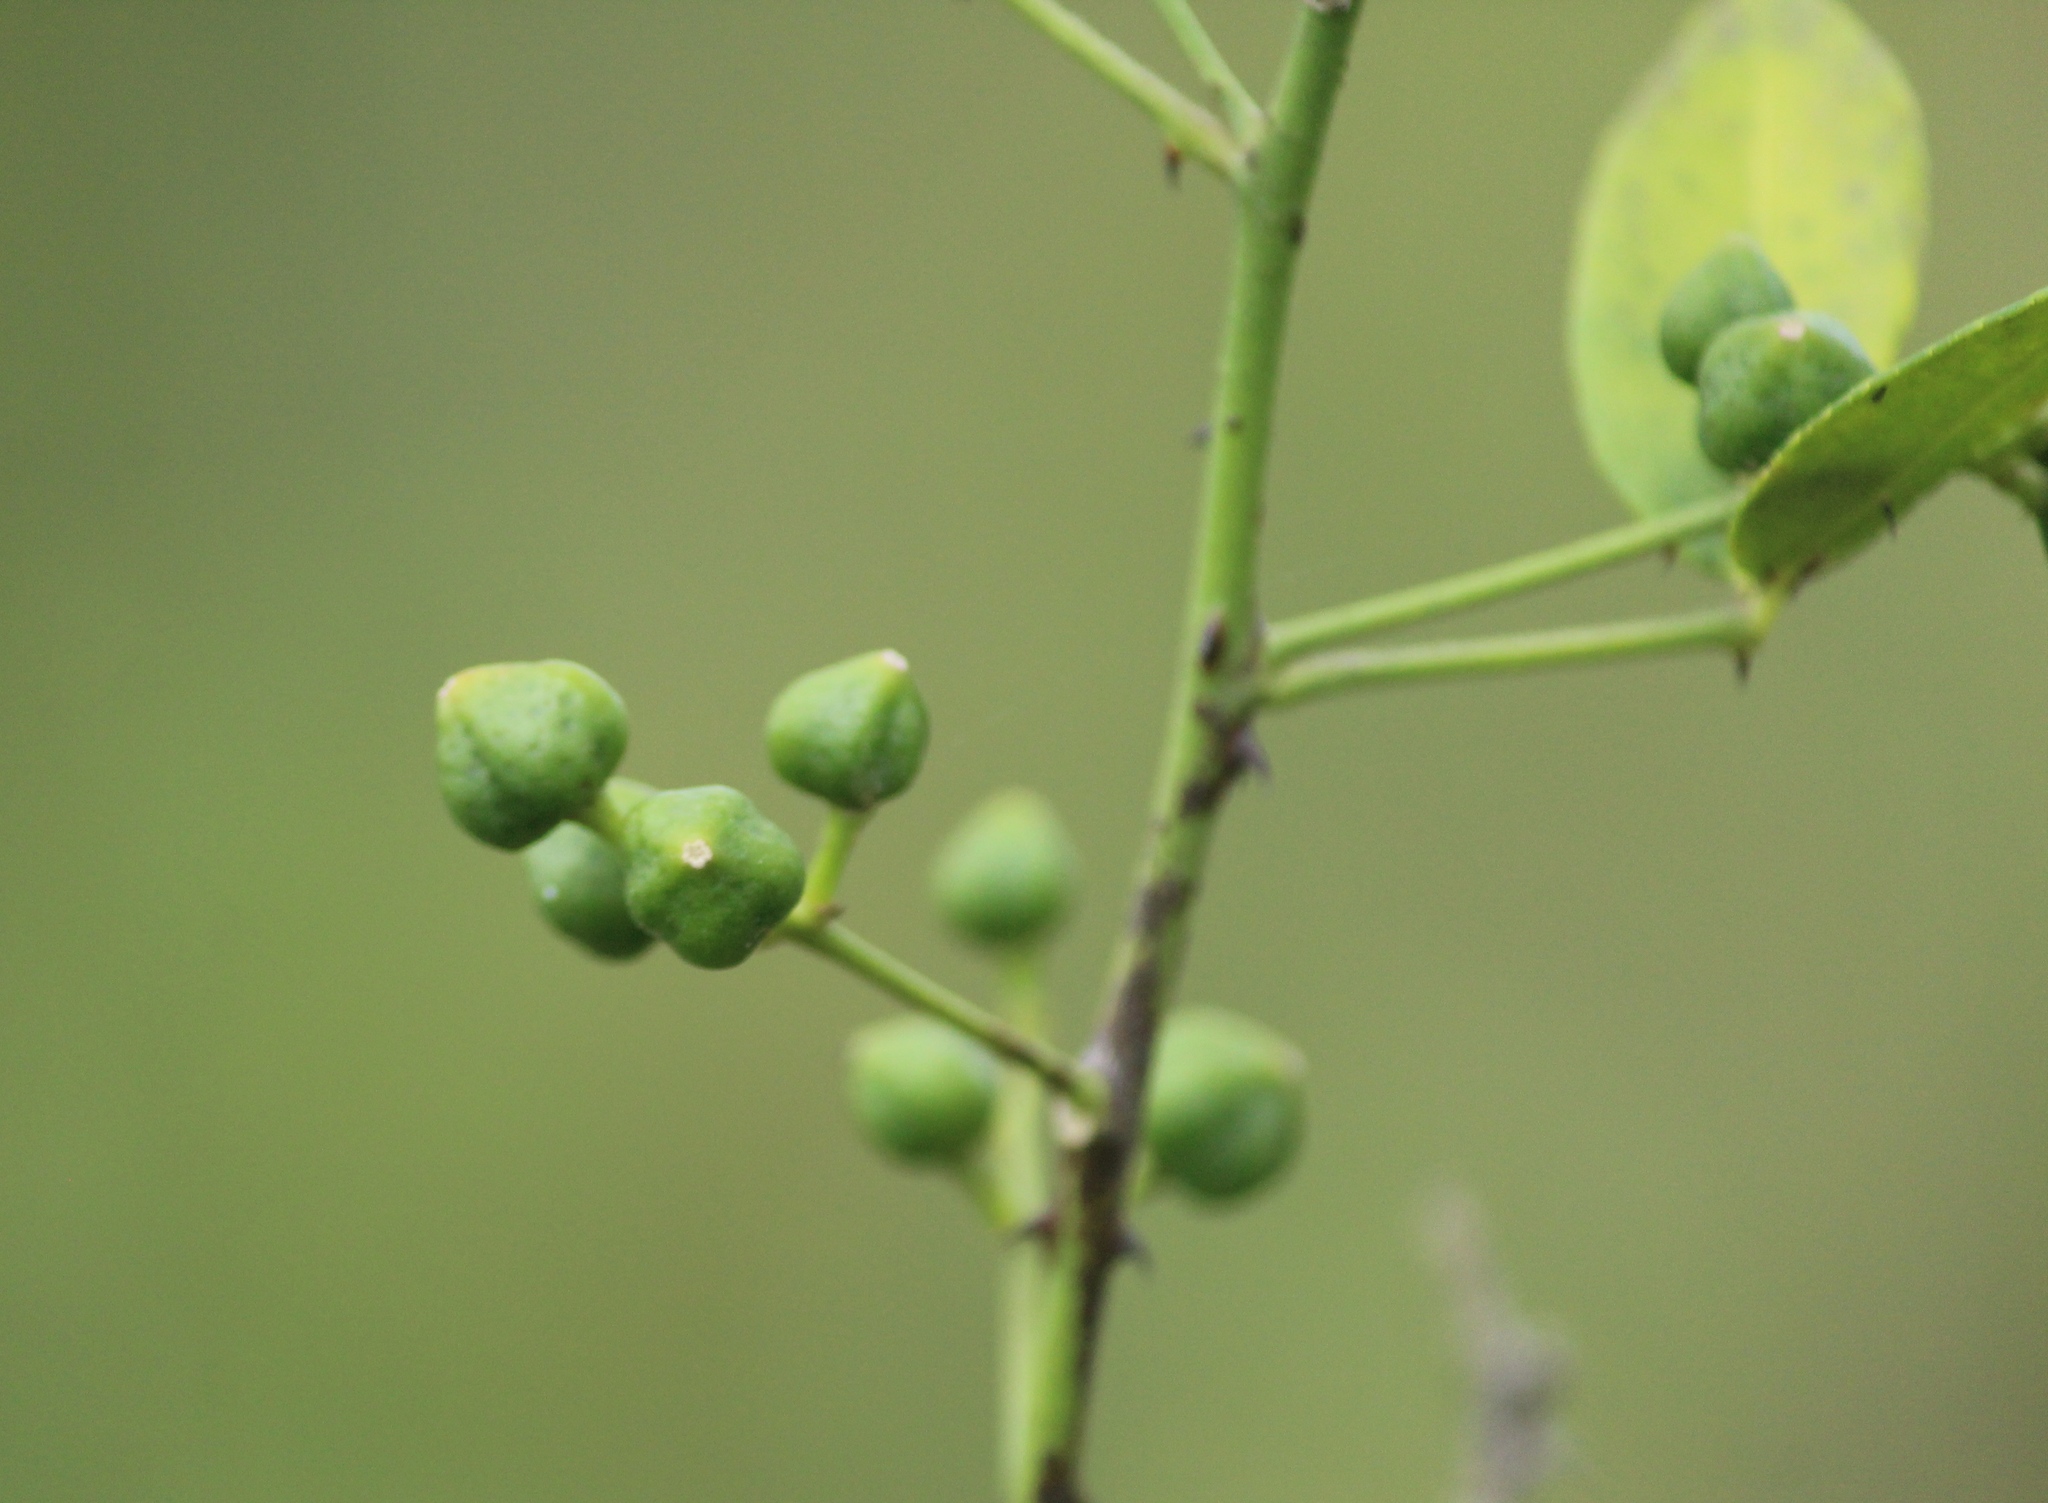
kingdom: Plantae
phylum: Tracheophyta
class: Magnoliopsida
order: Sapindales
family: Rutaceae
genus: Zanthoxylum
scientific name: Zanthoxylum asiaticum
